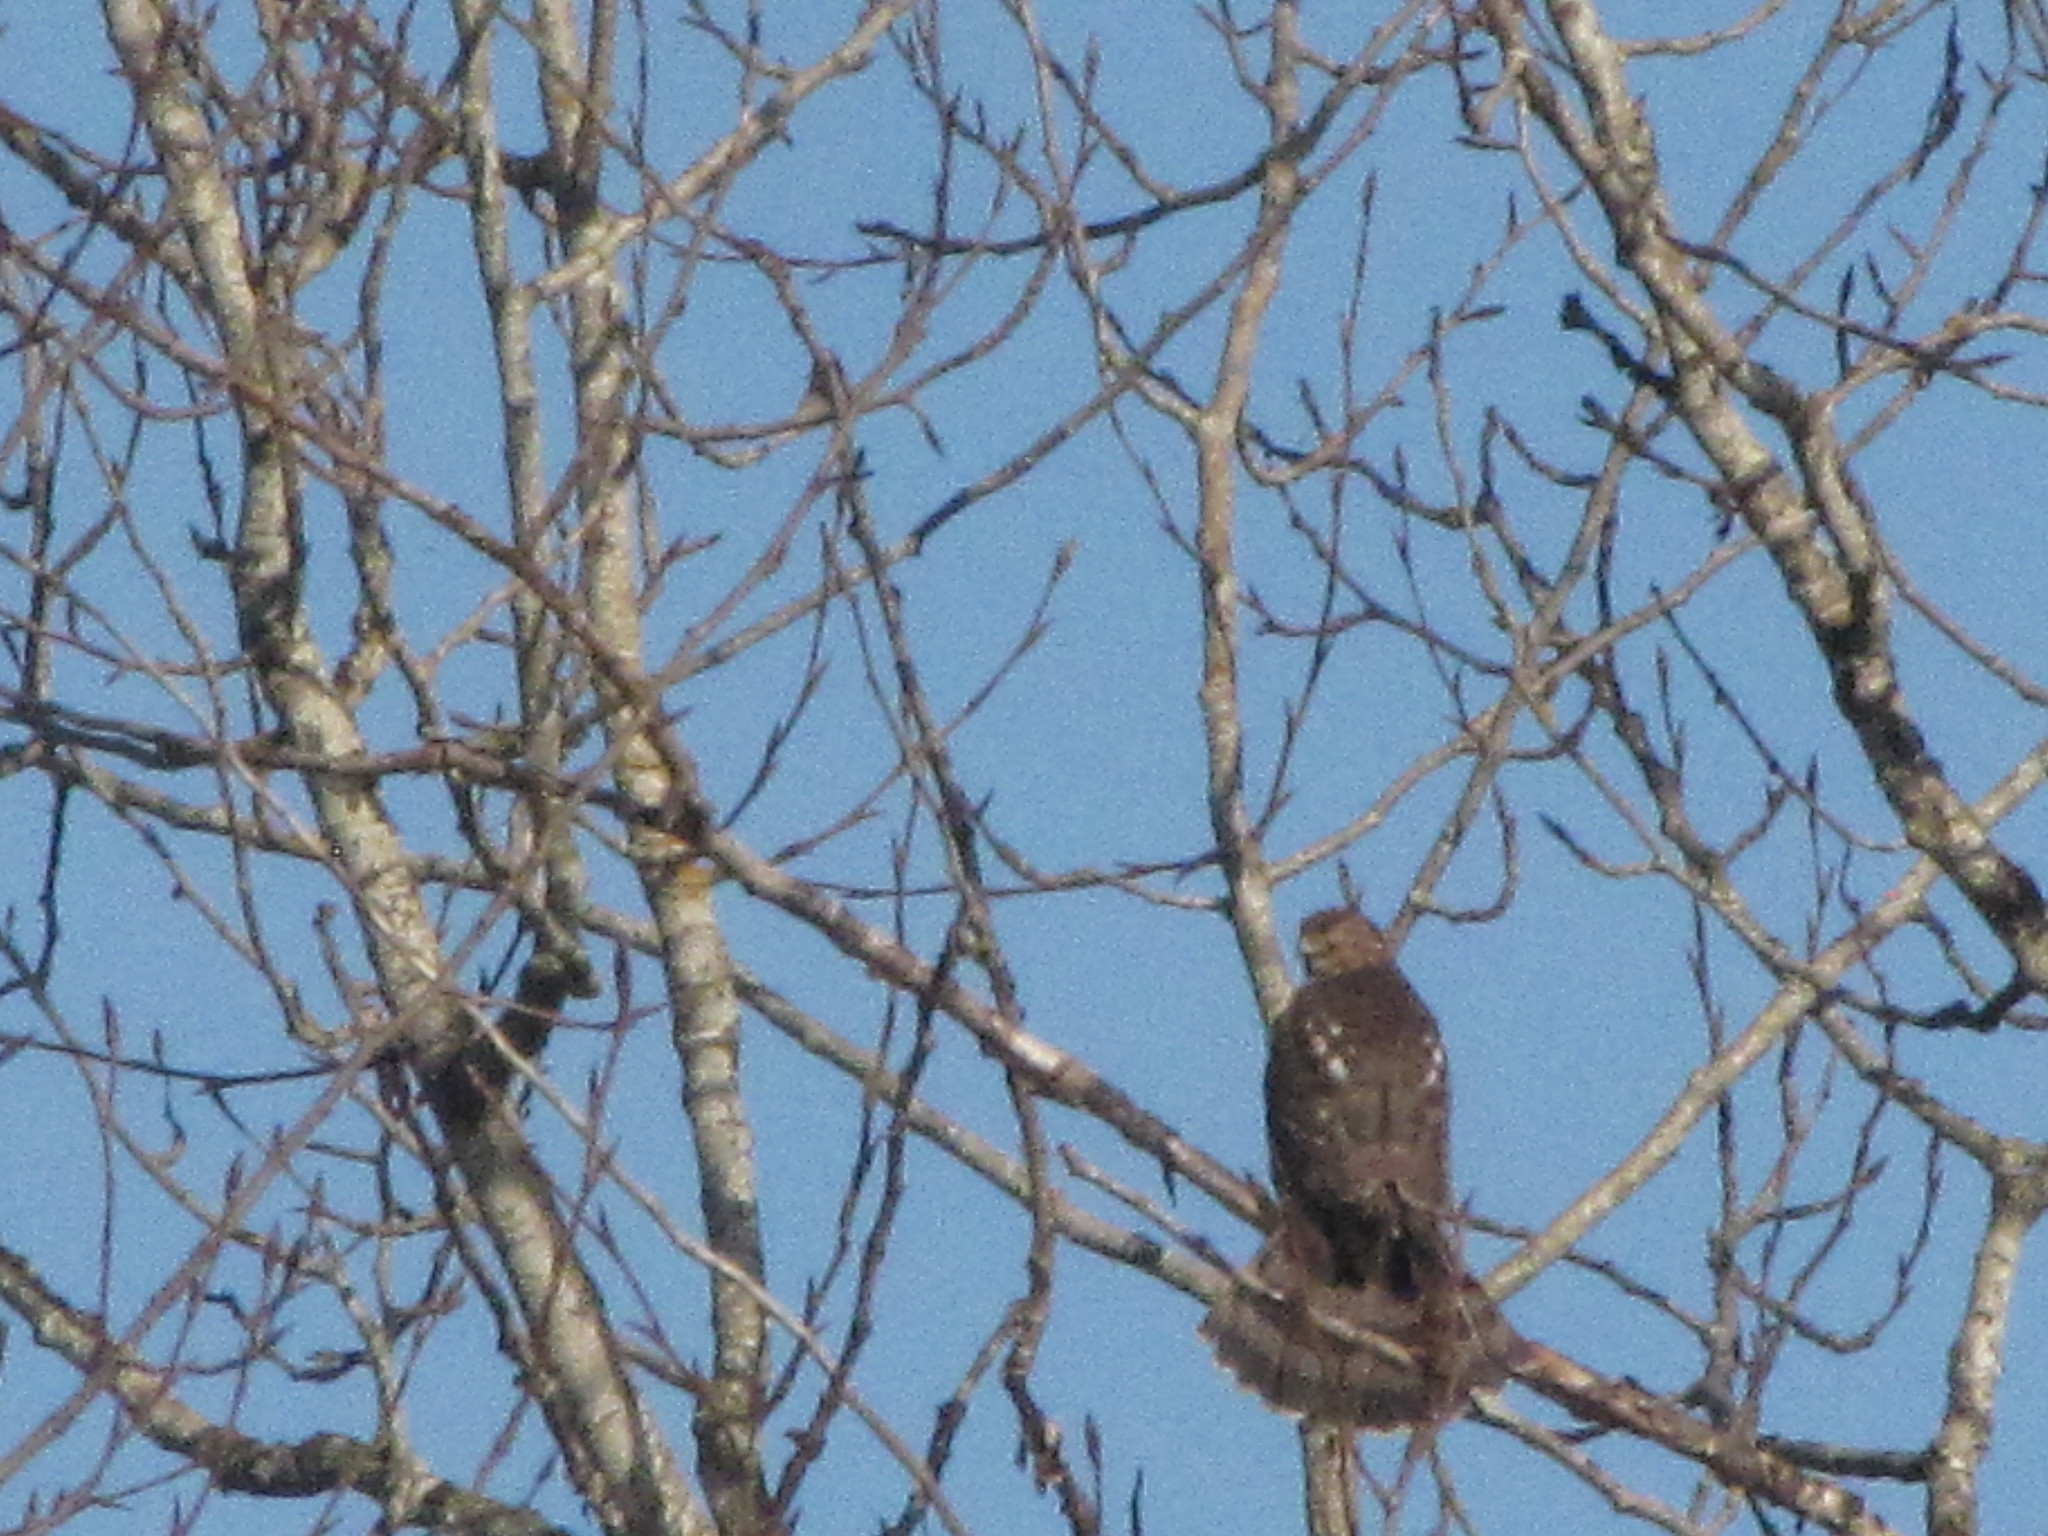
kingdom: Animalia
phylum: Chordata
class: Aves
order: Accipitriformes
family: Accipitridae
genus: Accipiter
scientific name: Accipiter cooperii
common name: Cooper's hawk
